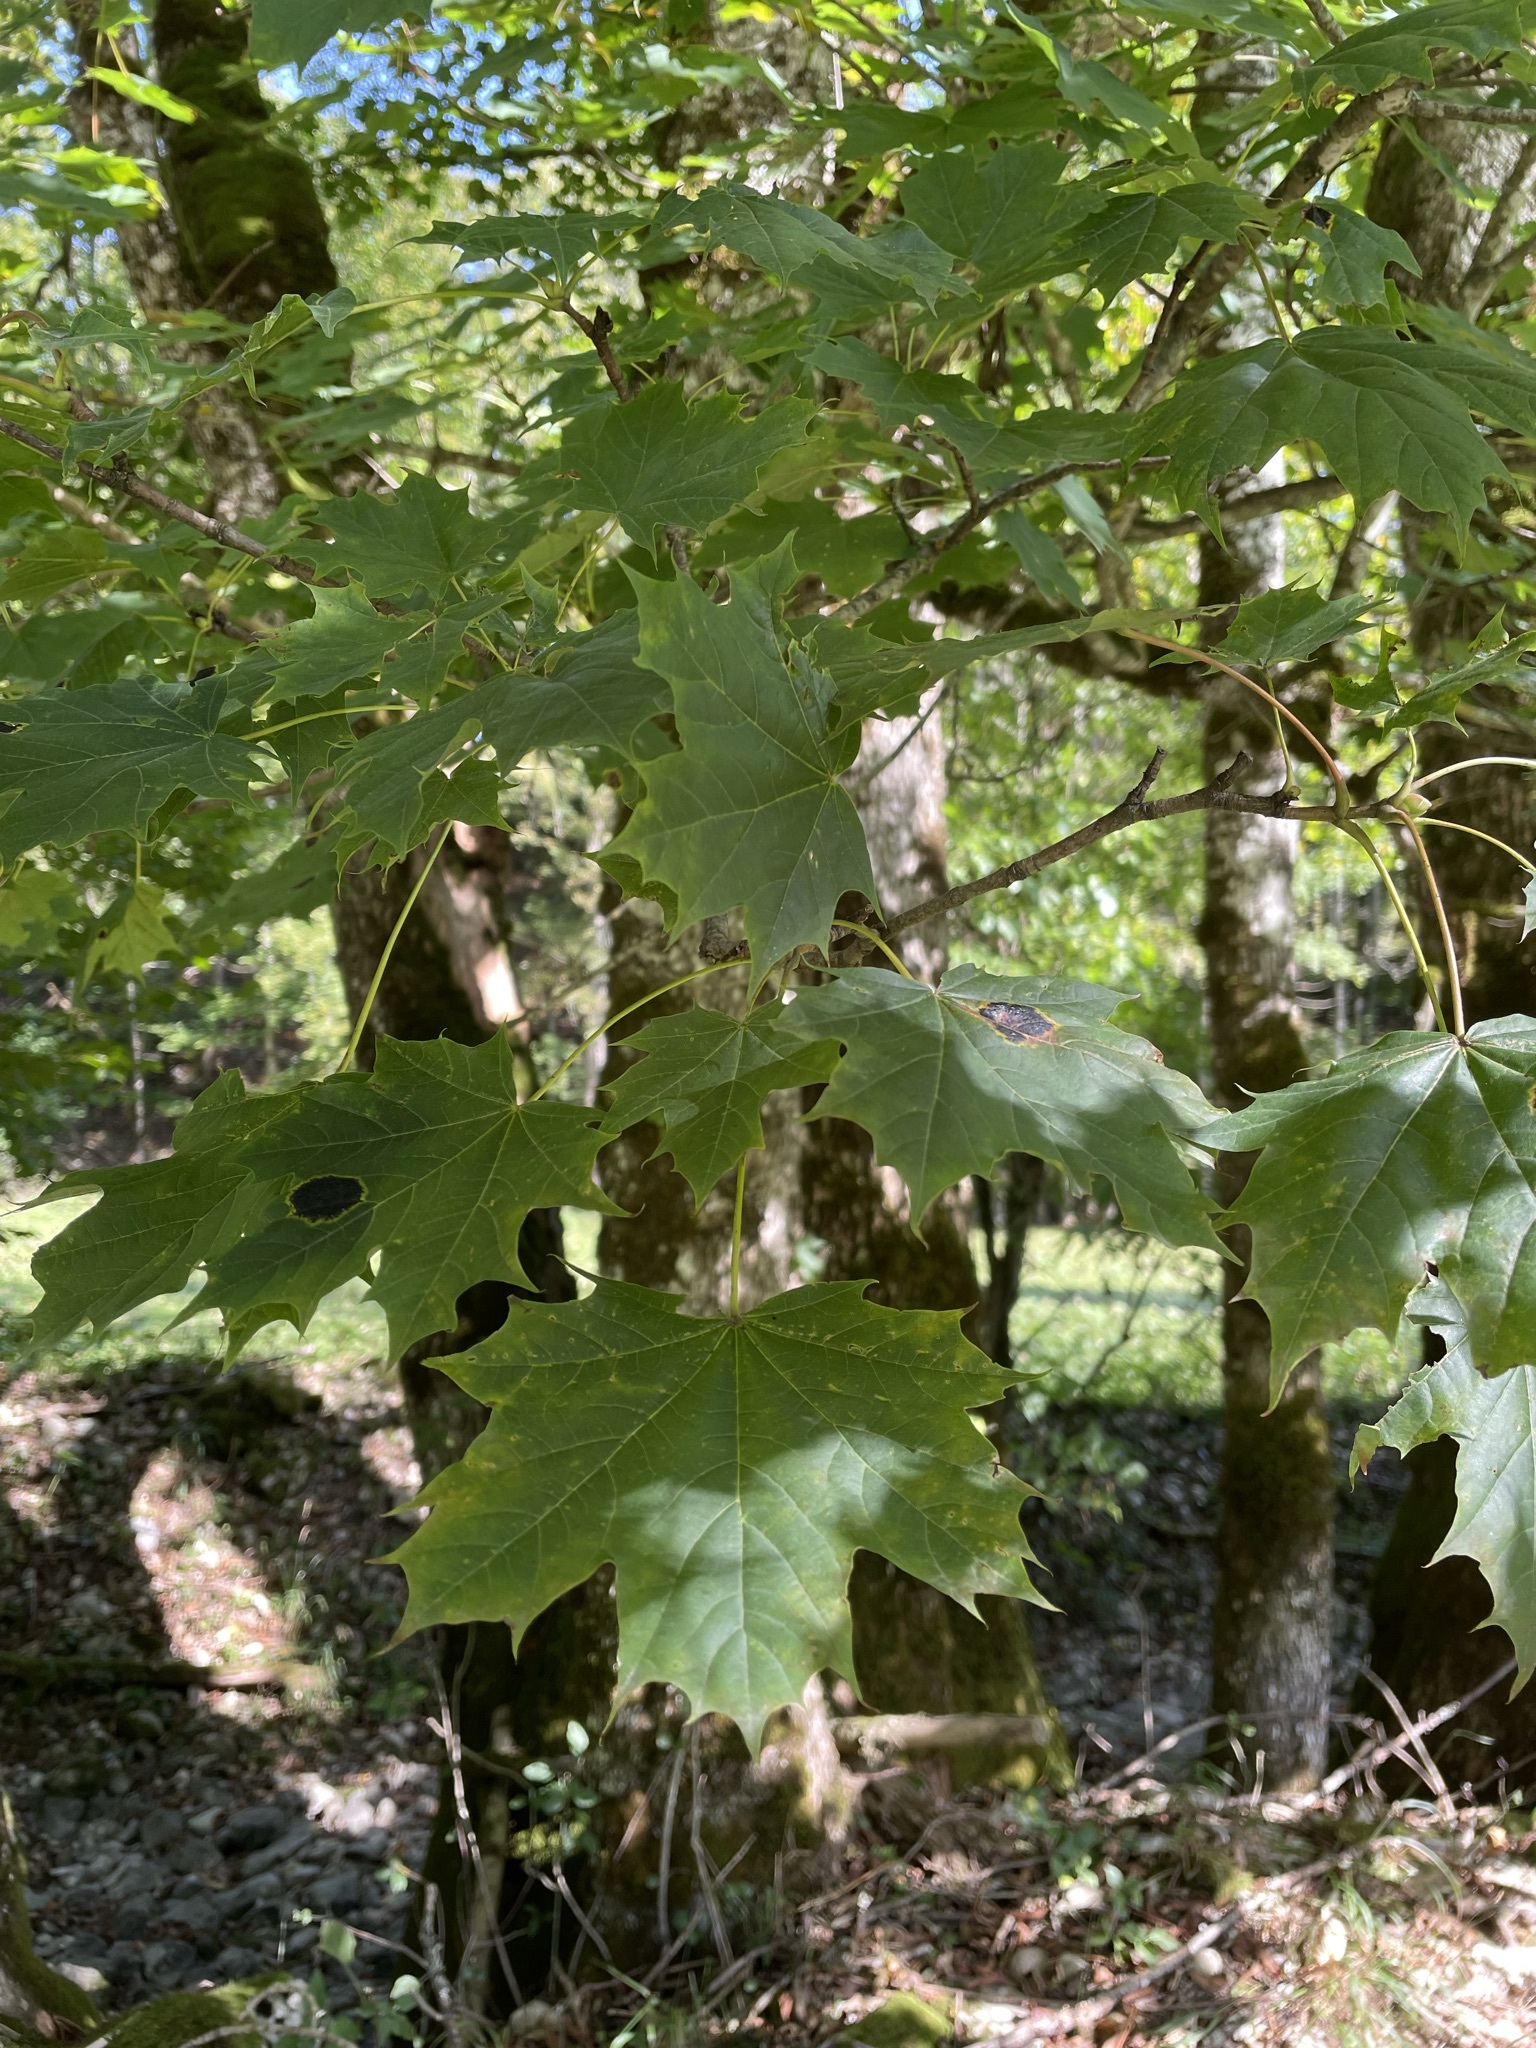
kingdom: Plantae
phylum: Tracheophyta
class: Magnoliopsida
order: Sapindales
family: Sapindaceae
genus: Acer
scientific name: Acer platanoides
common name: Norway maple
